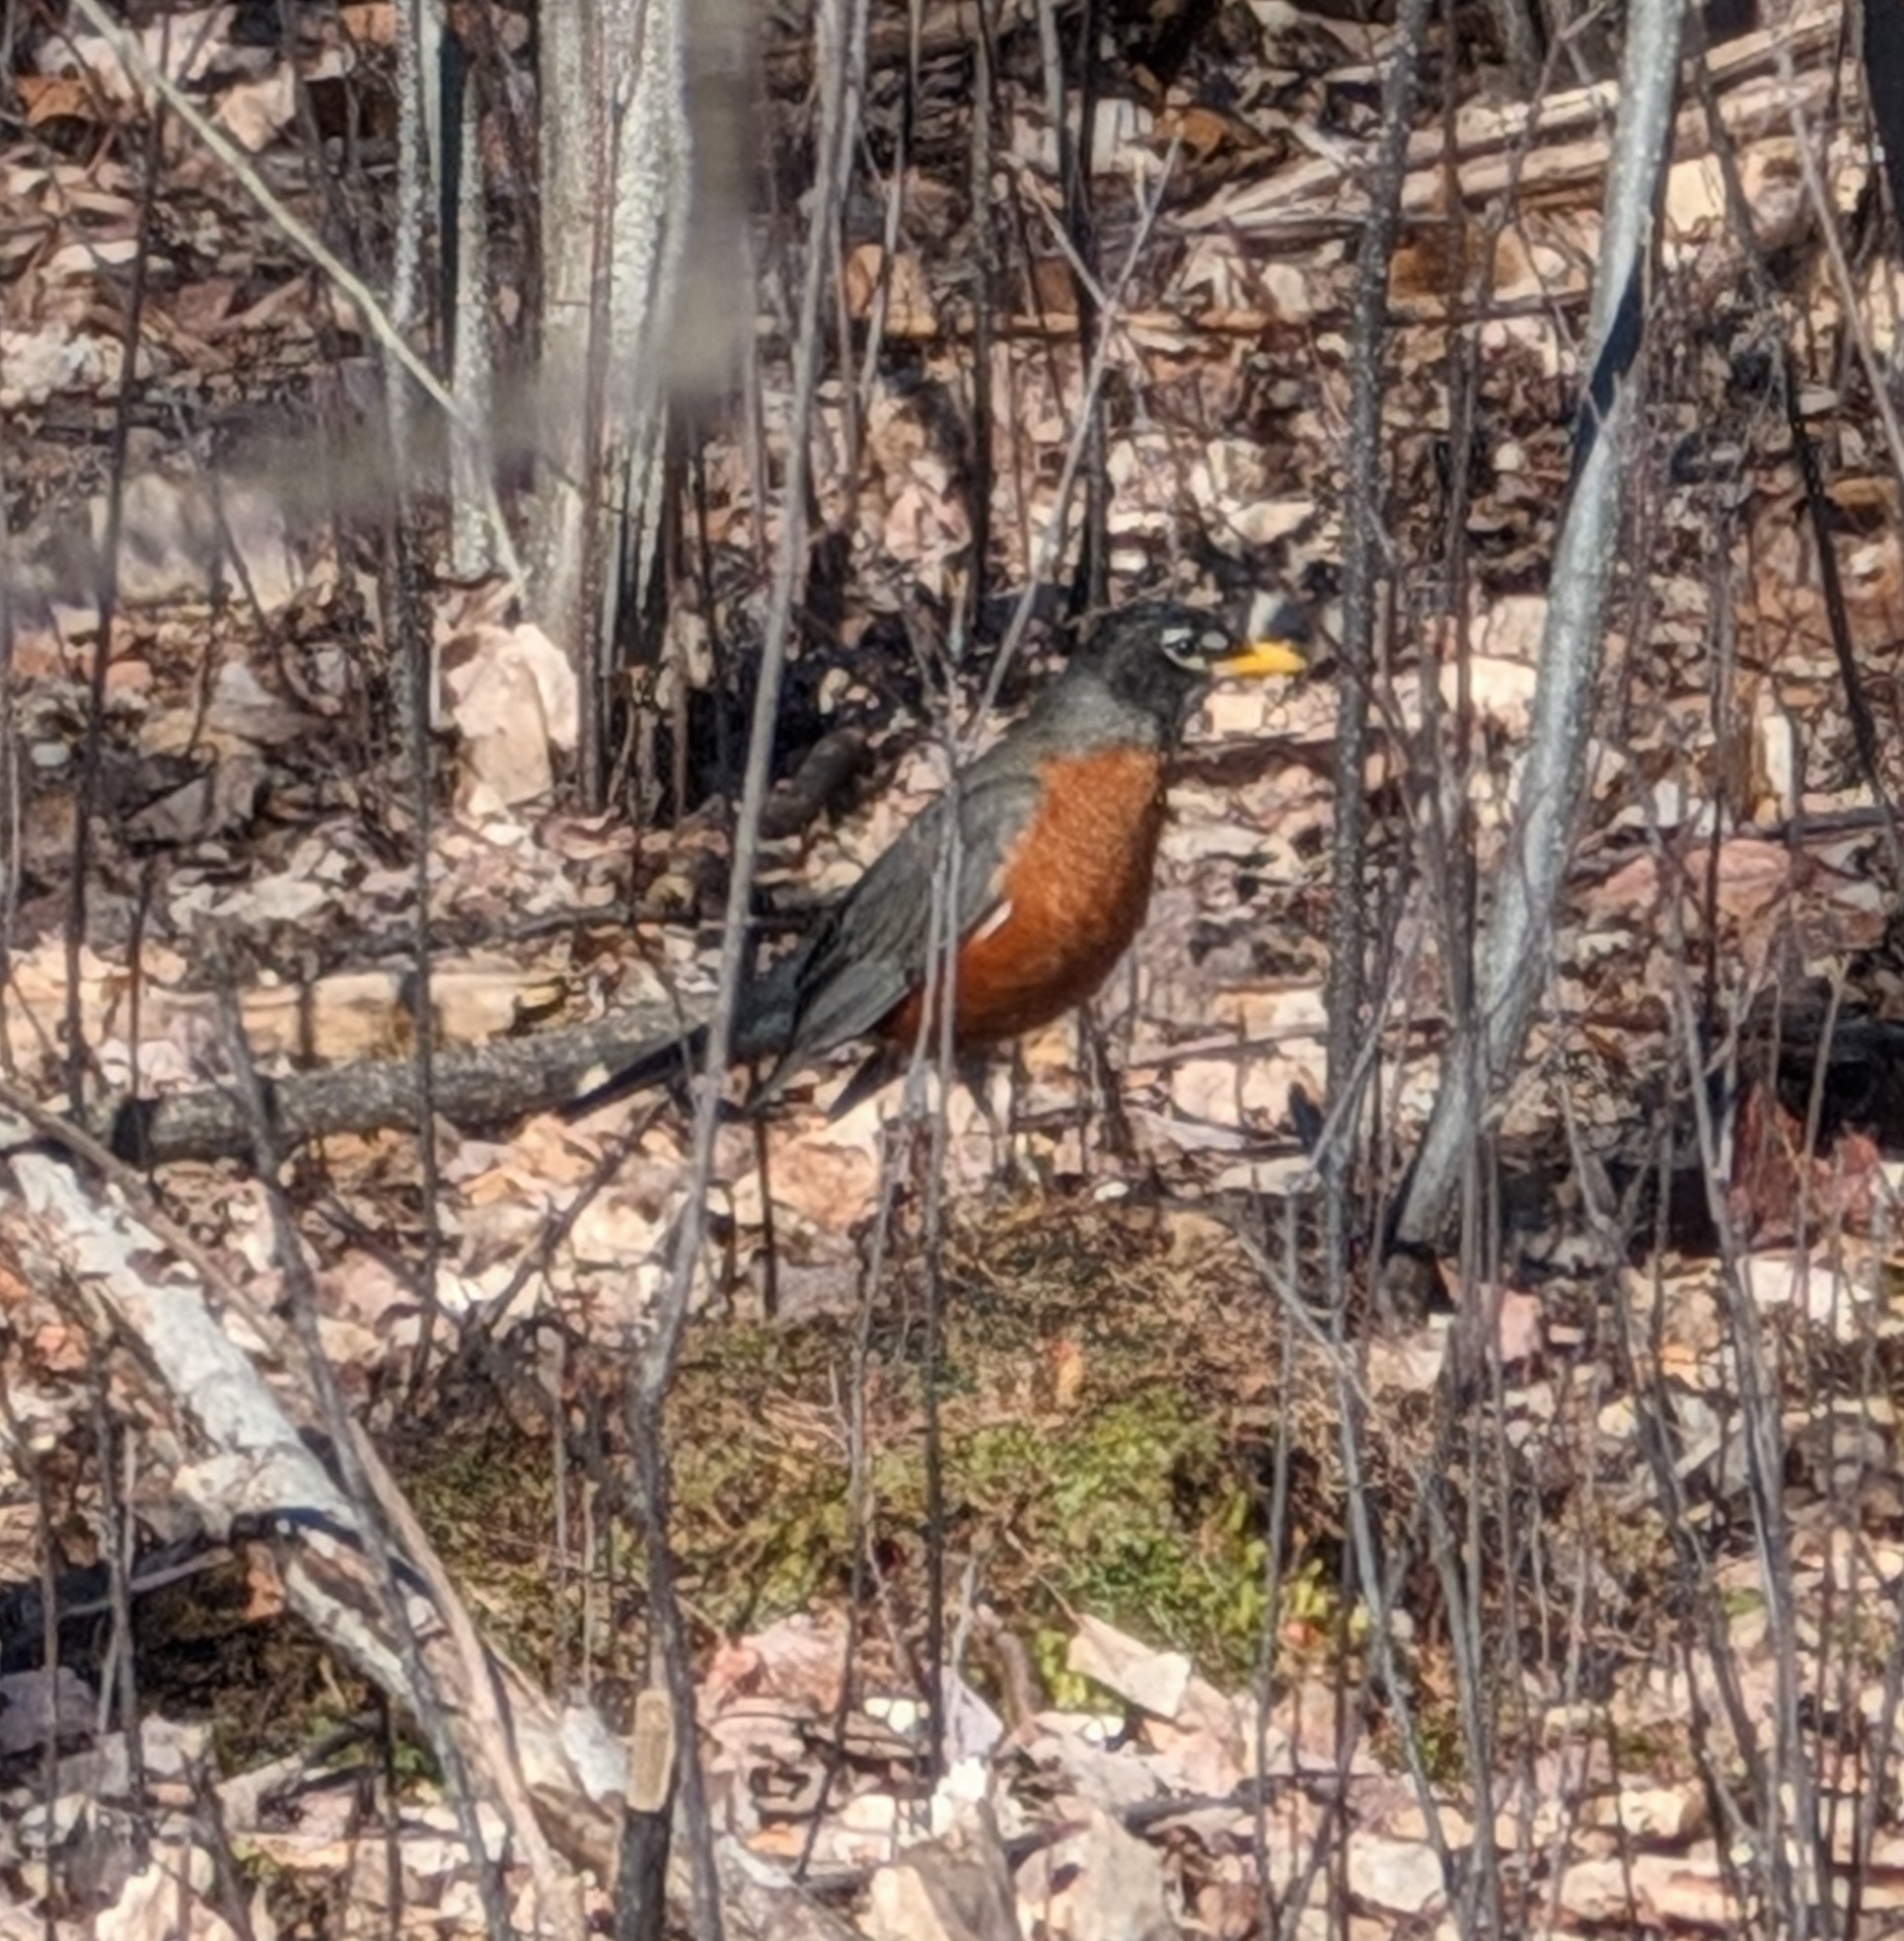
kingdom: Animalia
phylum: Chordata
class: Aves
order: Passeriformes
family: Turdidae
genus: Turdus
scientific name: Turdus migratorius
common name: American robin
